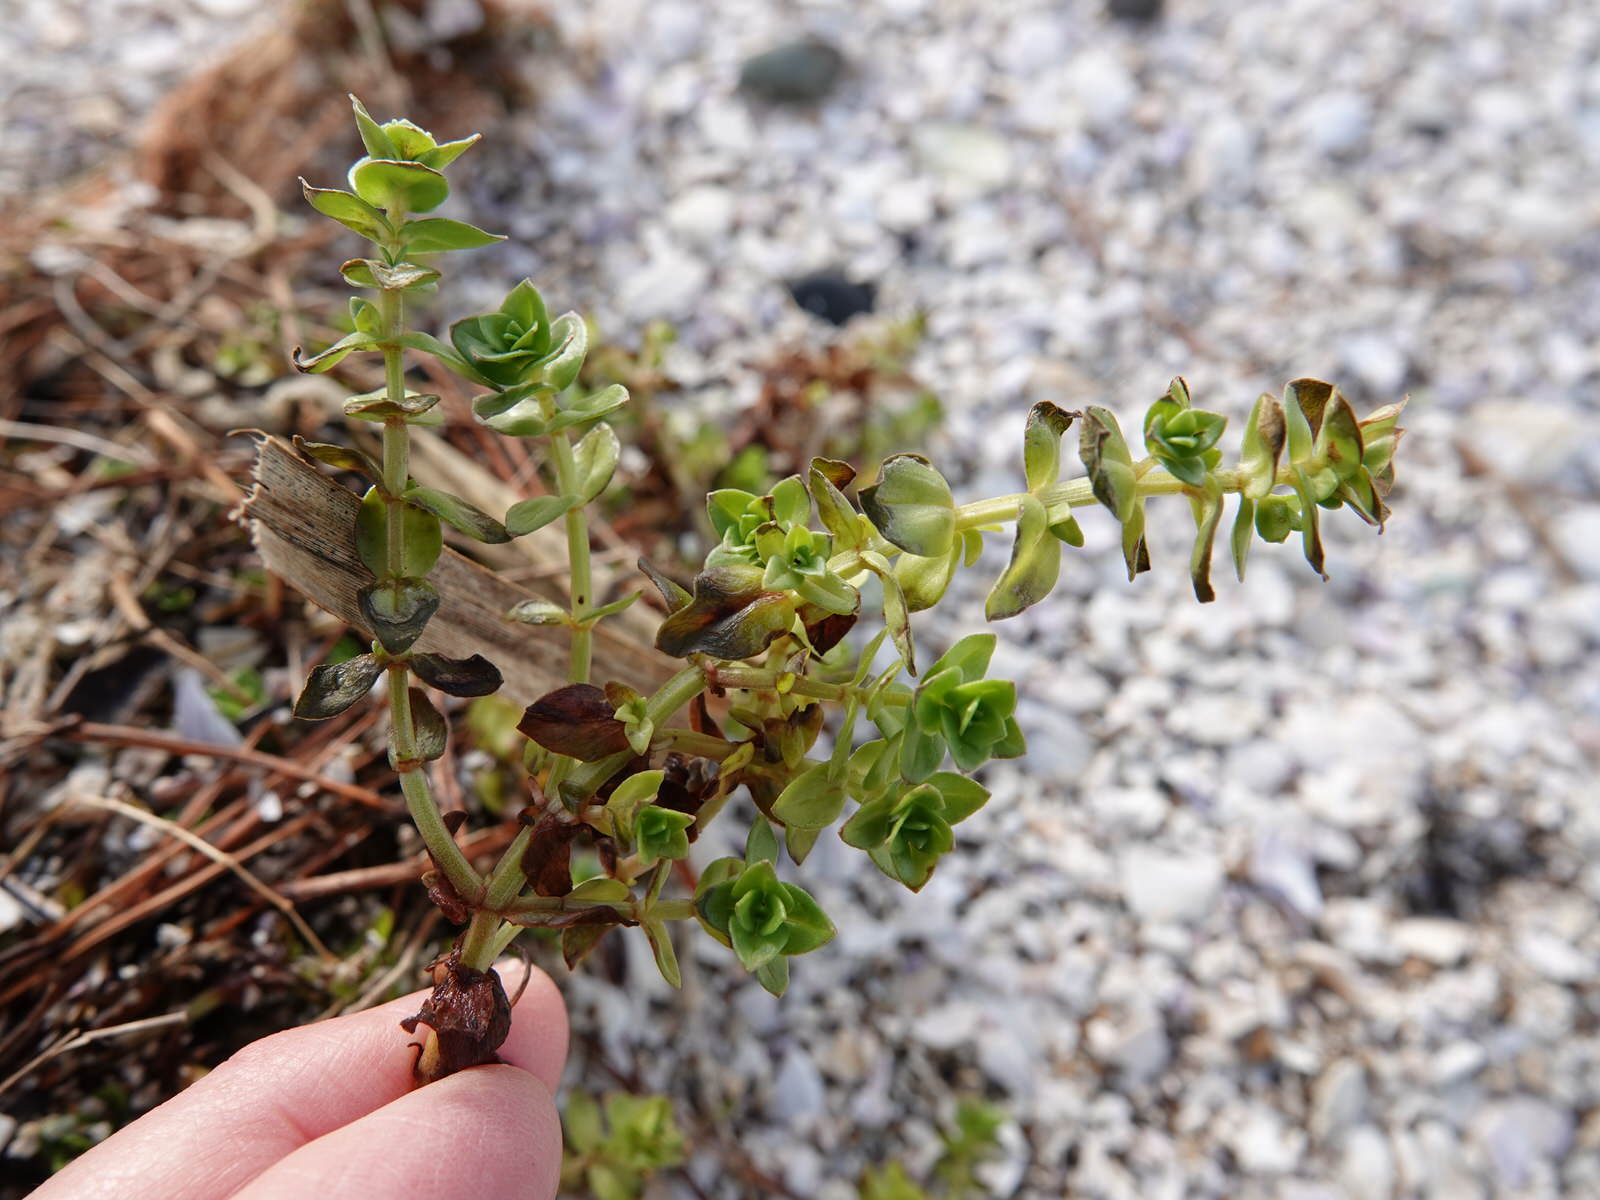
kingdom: Plantae
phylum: Tracheophyta
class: Magnoliopsida
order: Ericales
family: Primulaceae
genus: Lysimachia
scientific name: Lysimachia arvensis
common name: Scarlet pimpernel
